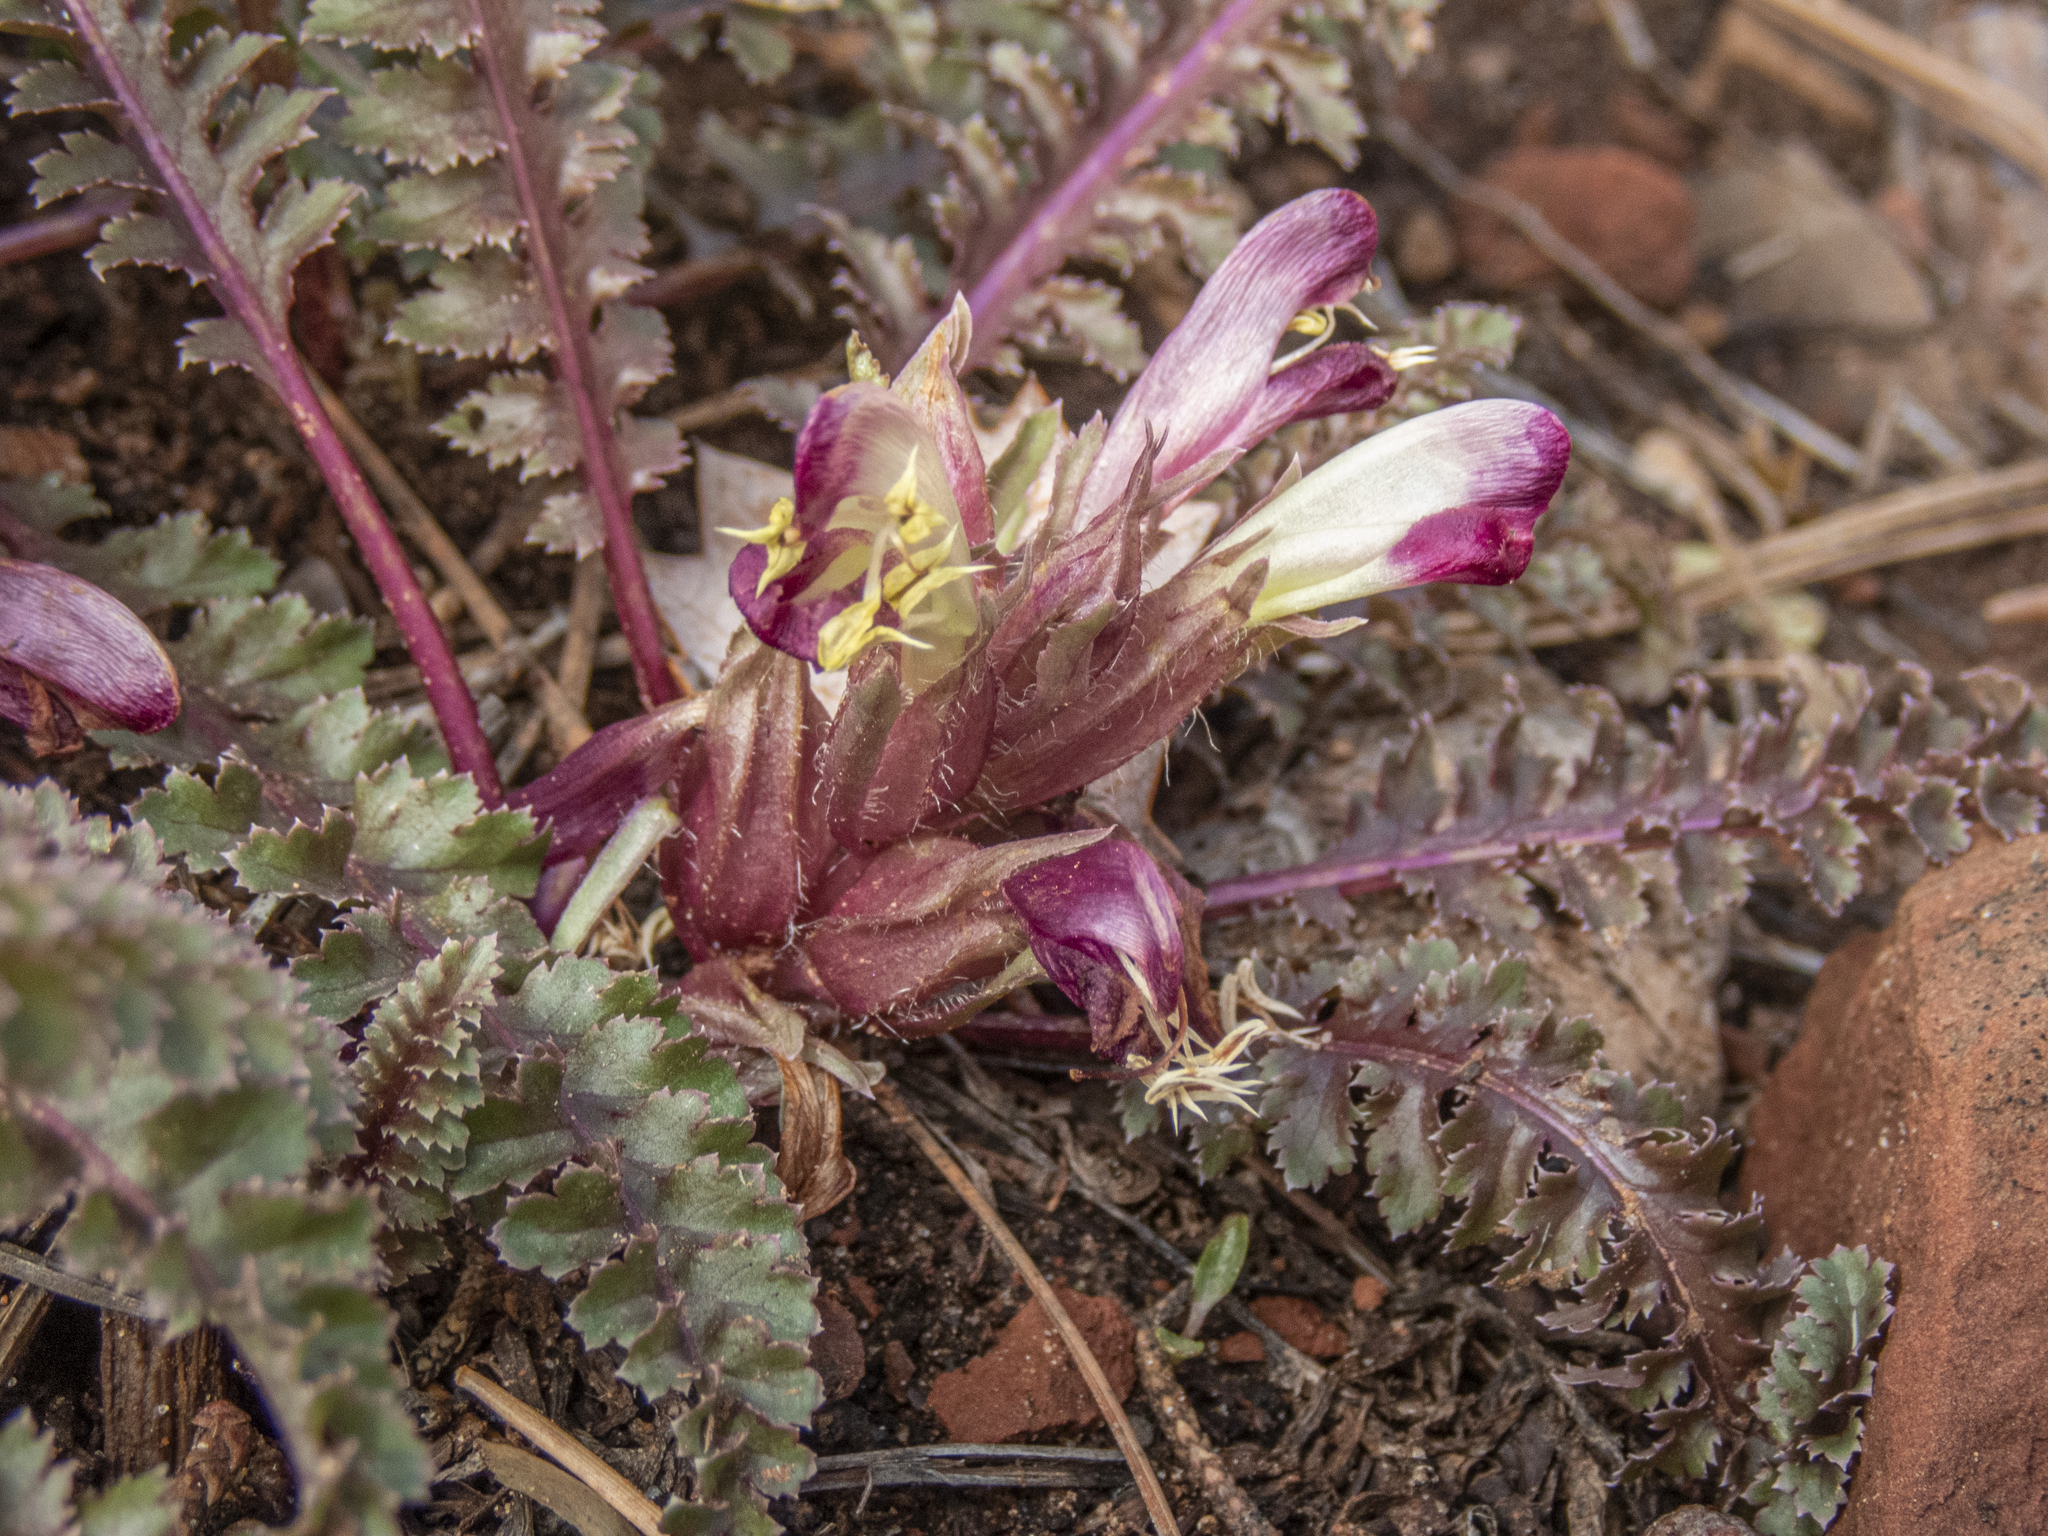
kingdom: Plantae
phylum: Tracheophyta
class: Magnoliopsida
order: Lamiales
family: Orobanchaceae
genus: Pedicularis
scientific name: Pedicularis centranthera
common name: Dwarf lousewort
